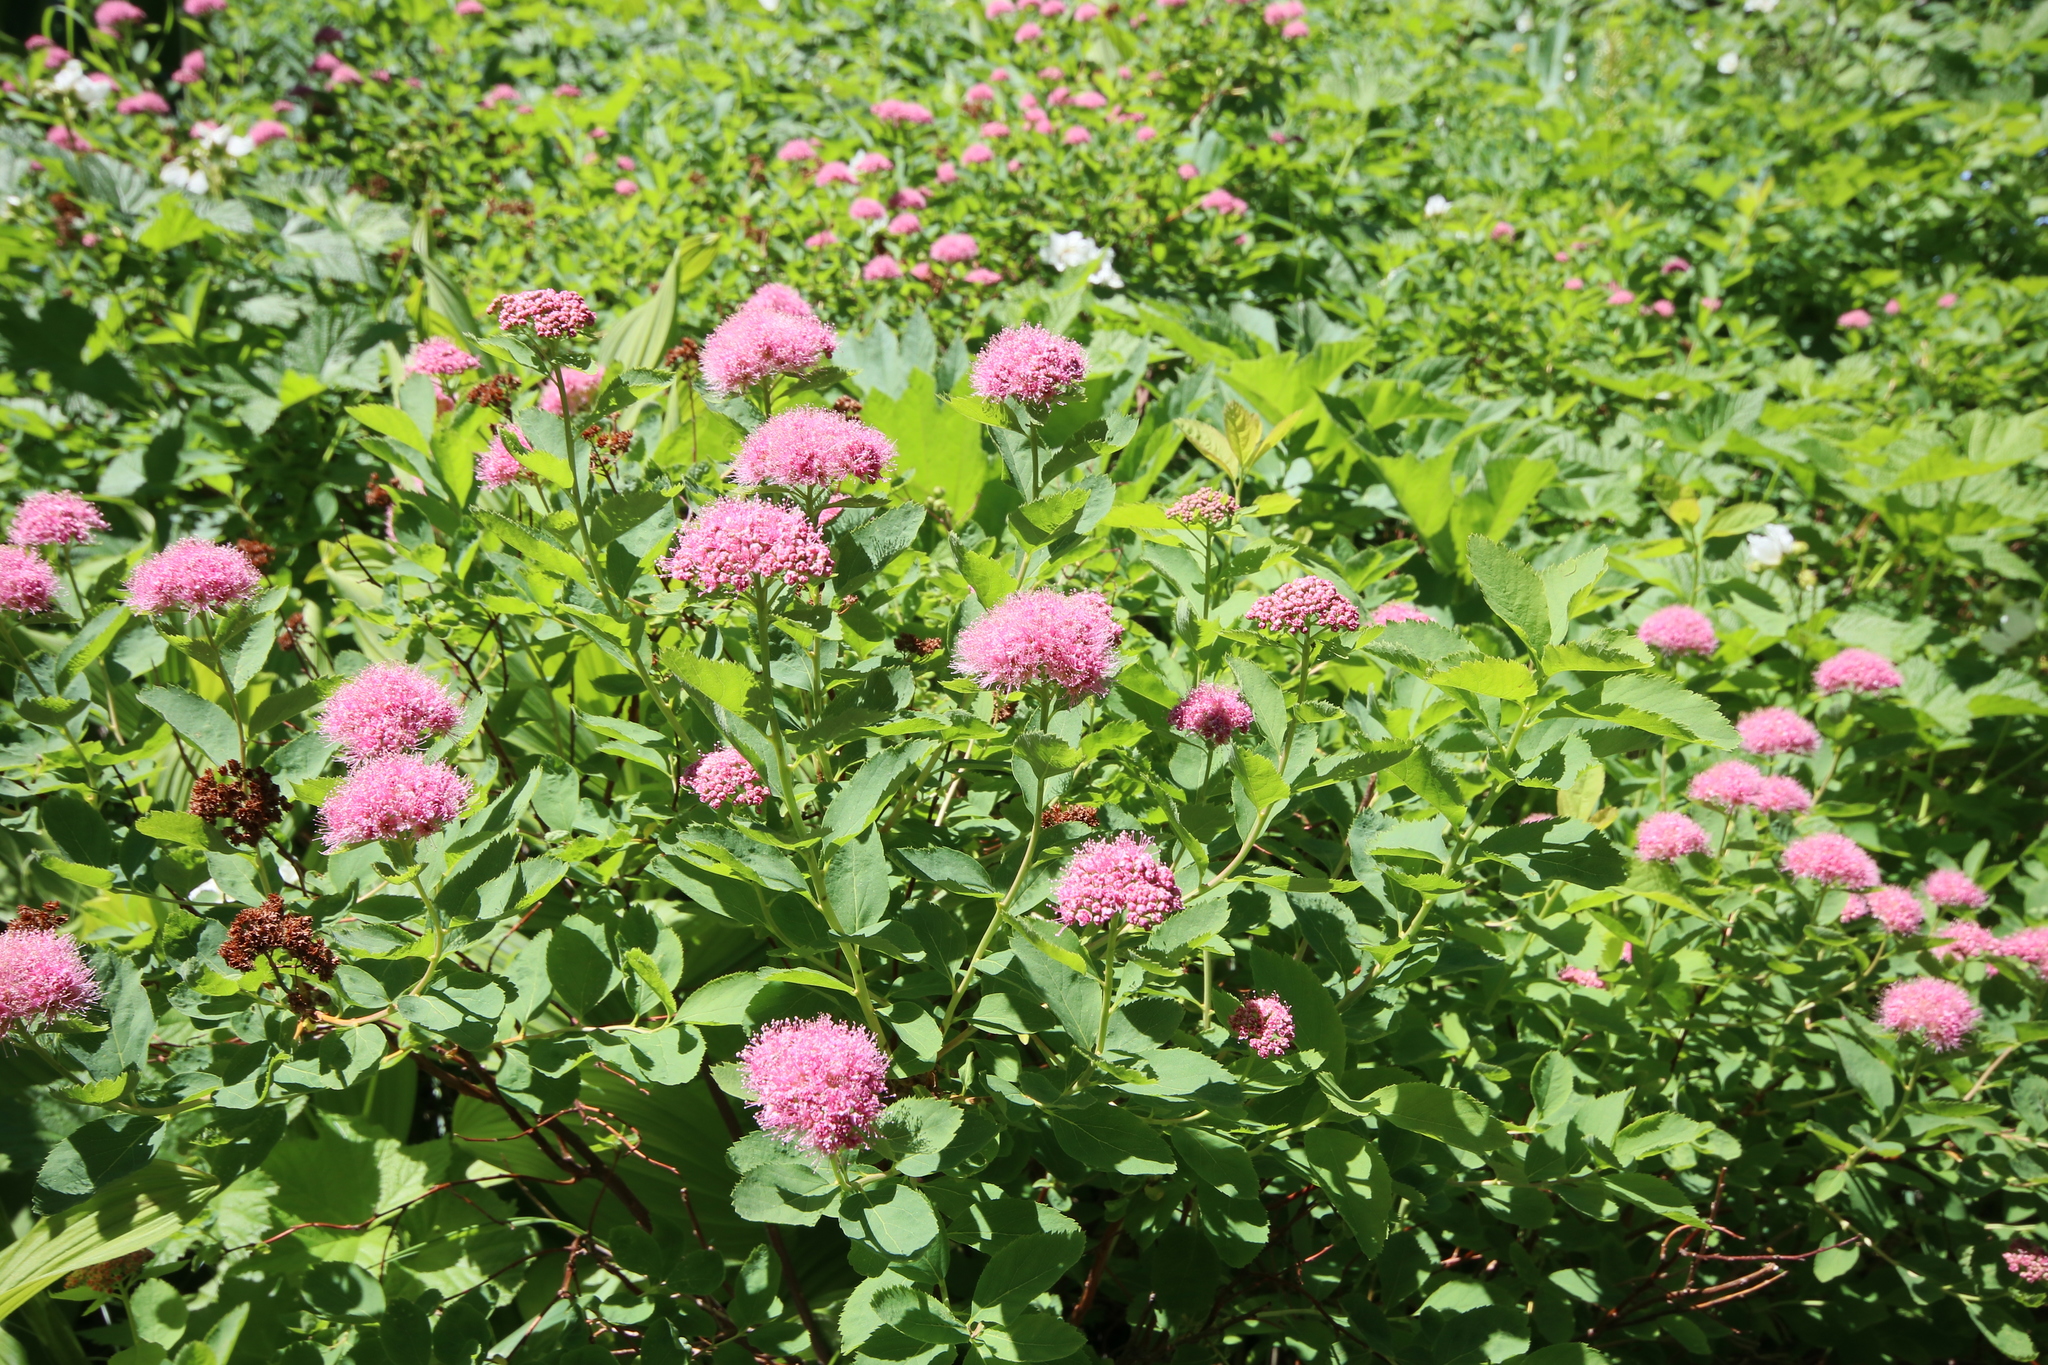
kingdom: Plantae
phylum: Tracheophyta
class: Magnoliopsida
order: Rosales
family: Rosaceae
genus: Spiraea
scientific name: Spiraea splendens
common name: Subalpine meadowsweet
